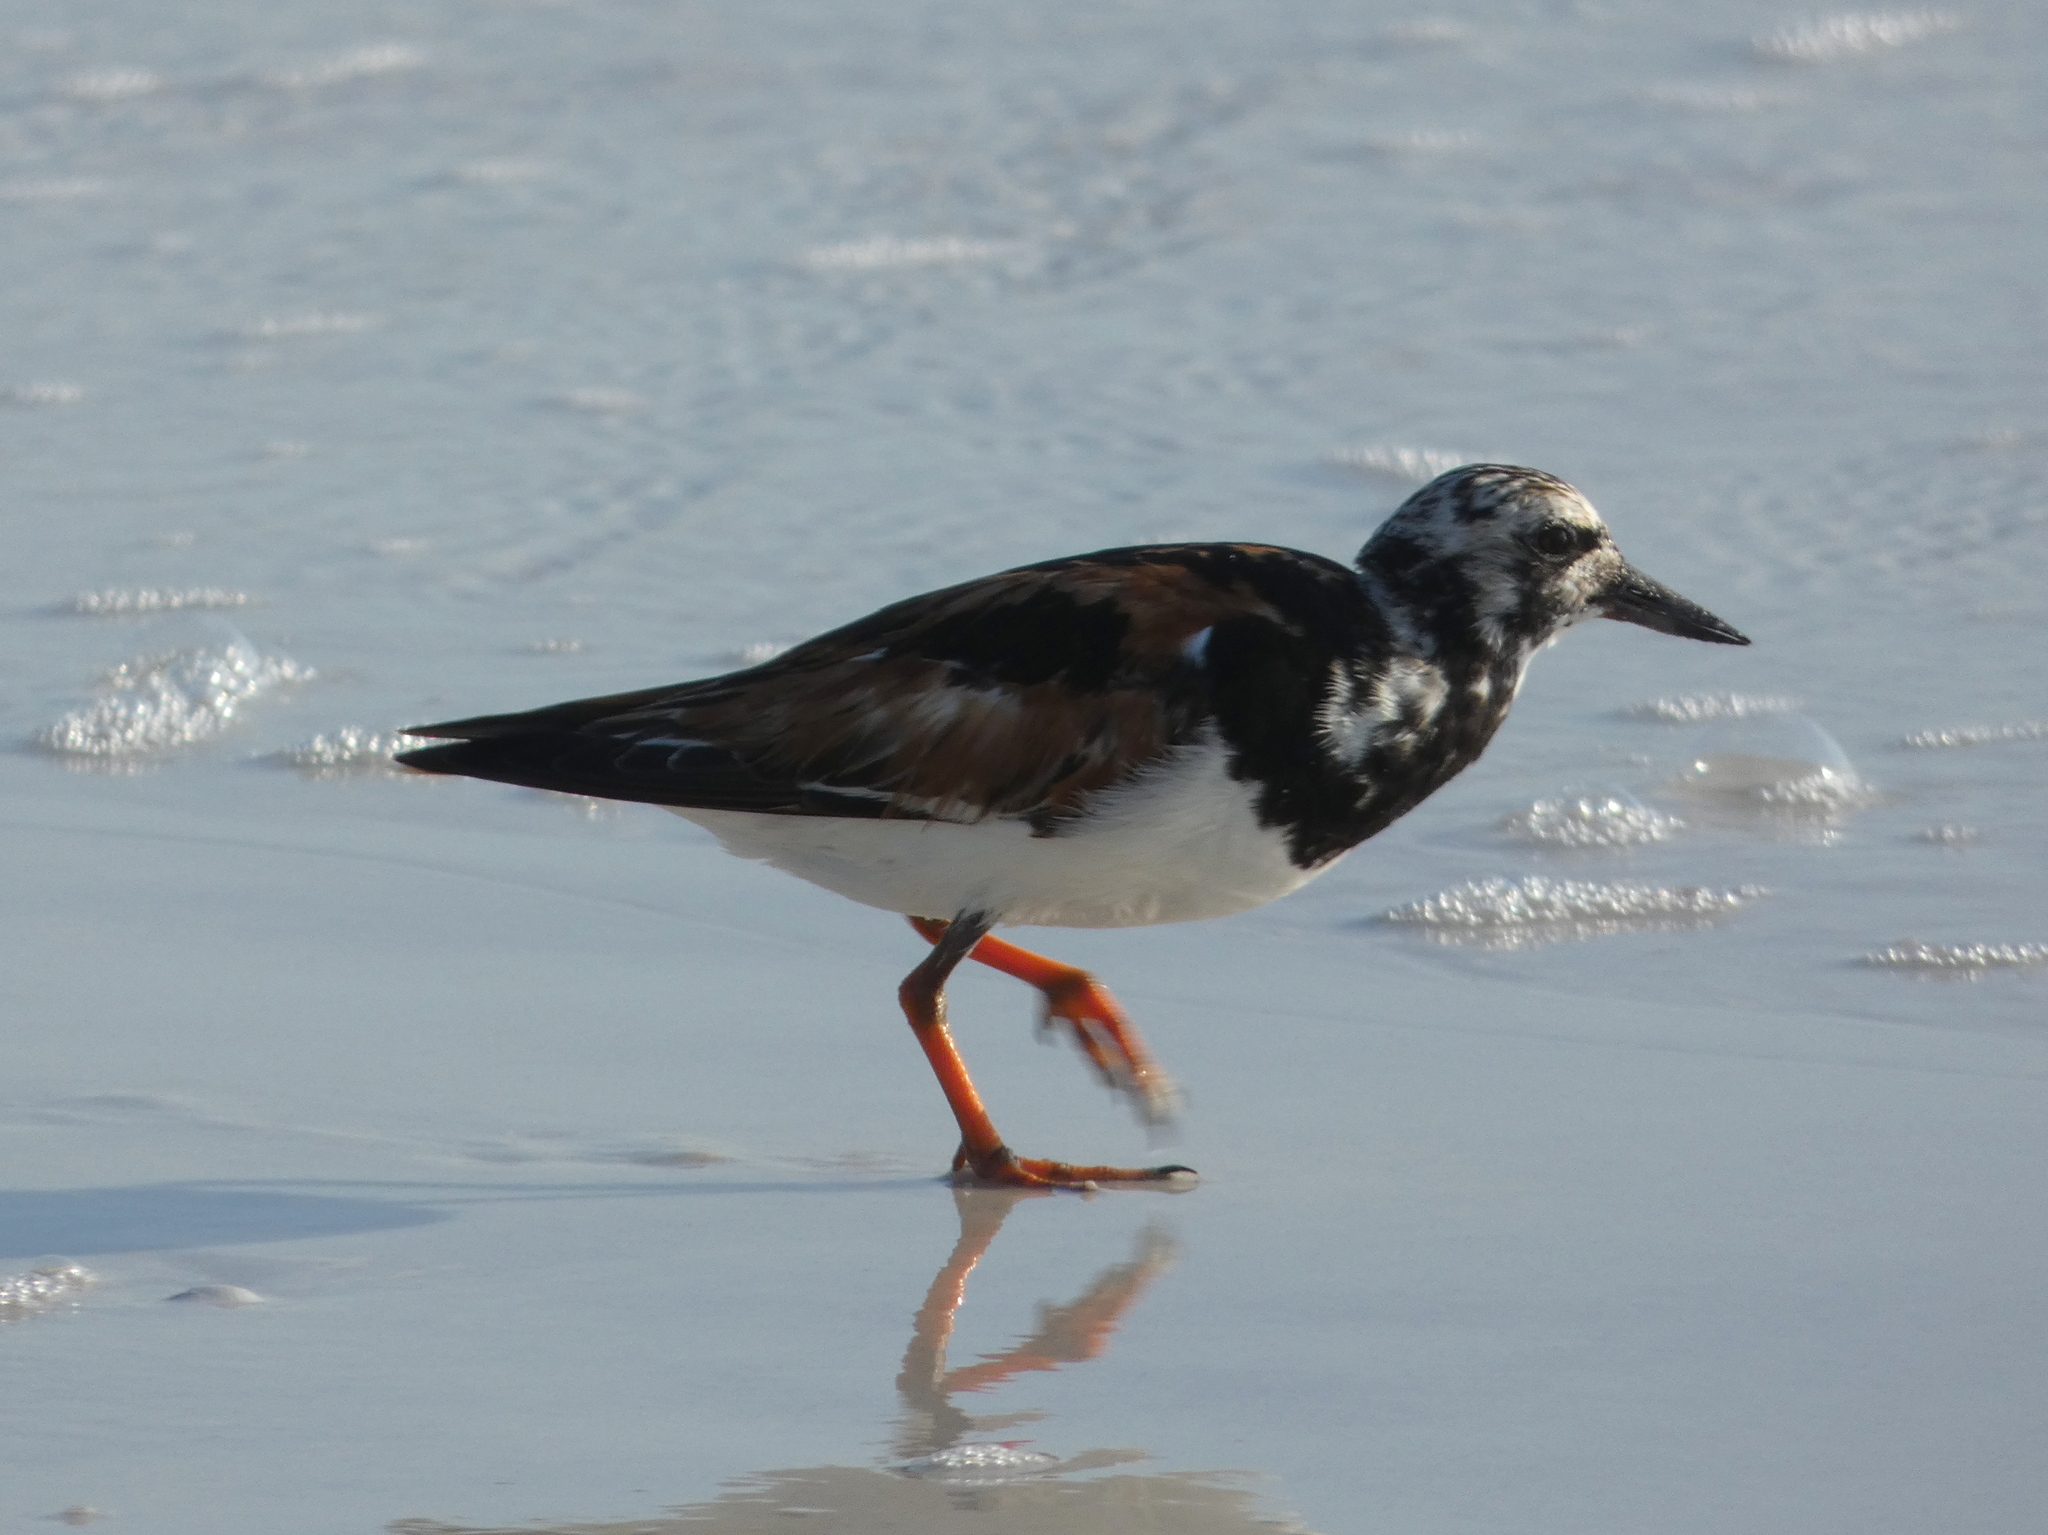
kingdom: Animalia
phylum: Chordata
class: Aves
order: Charadriiformes
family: Scolopacidae
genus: Arenaria
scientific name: Arenaria interpres
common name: Ruddy turnstone
